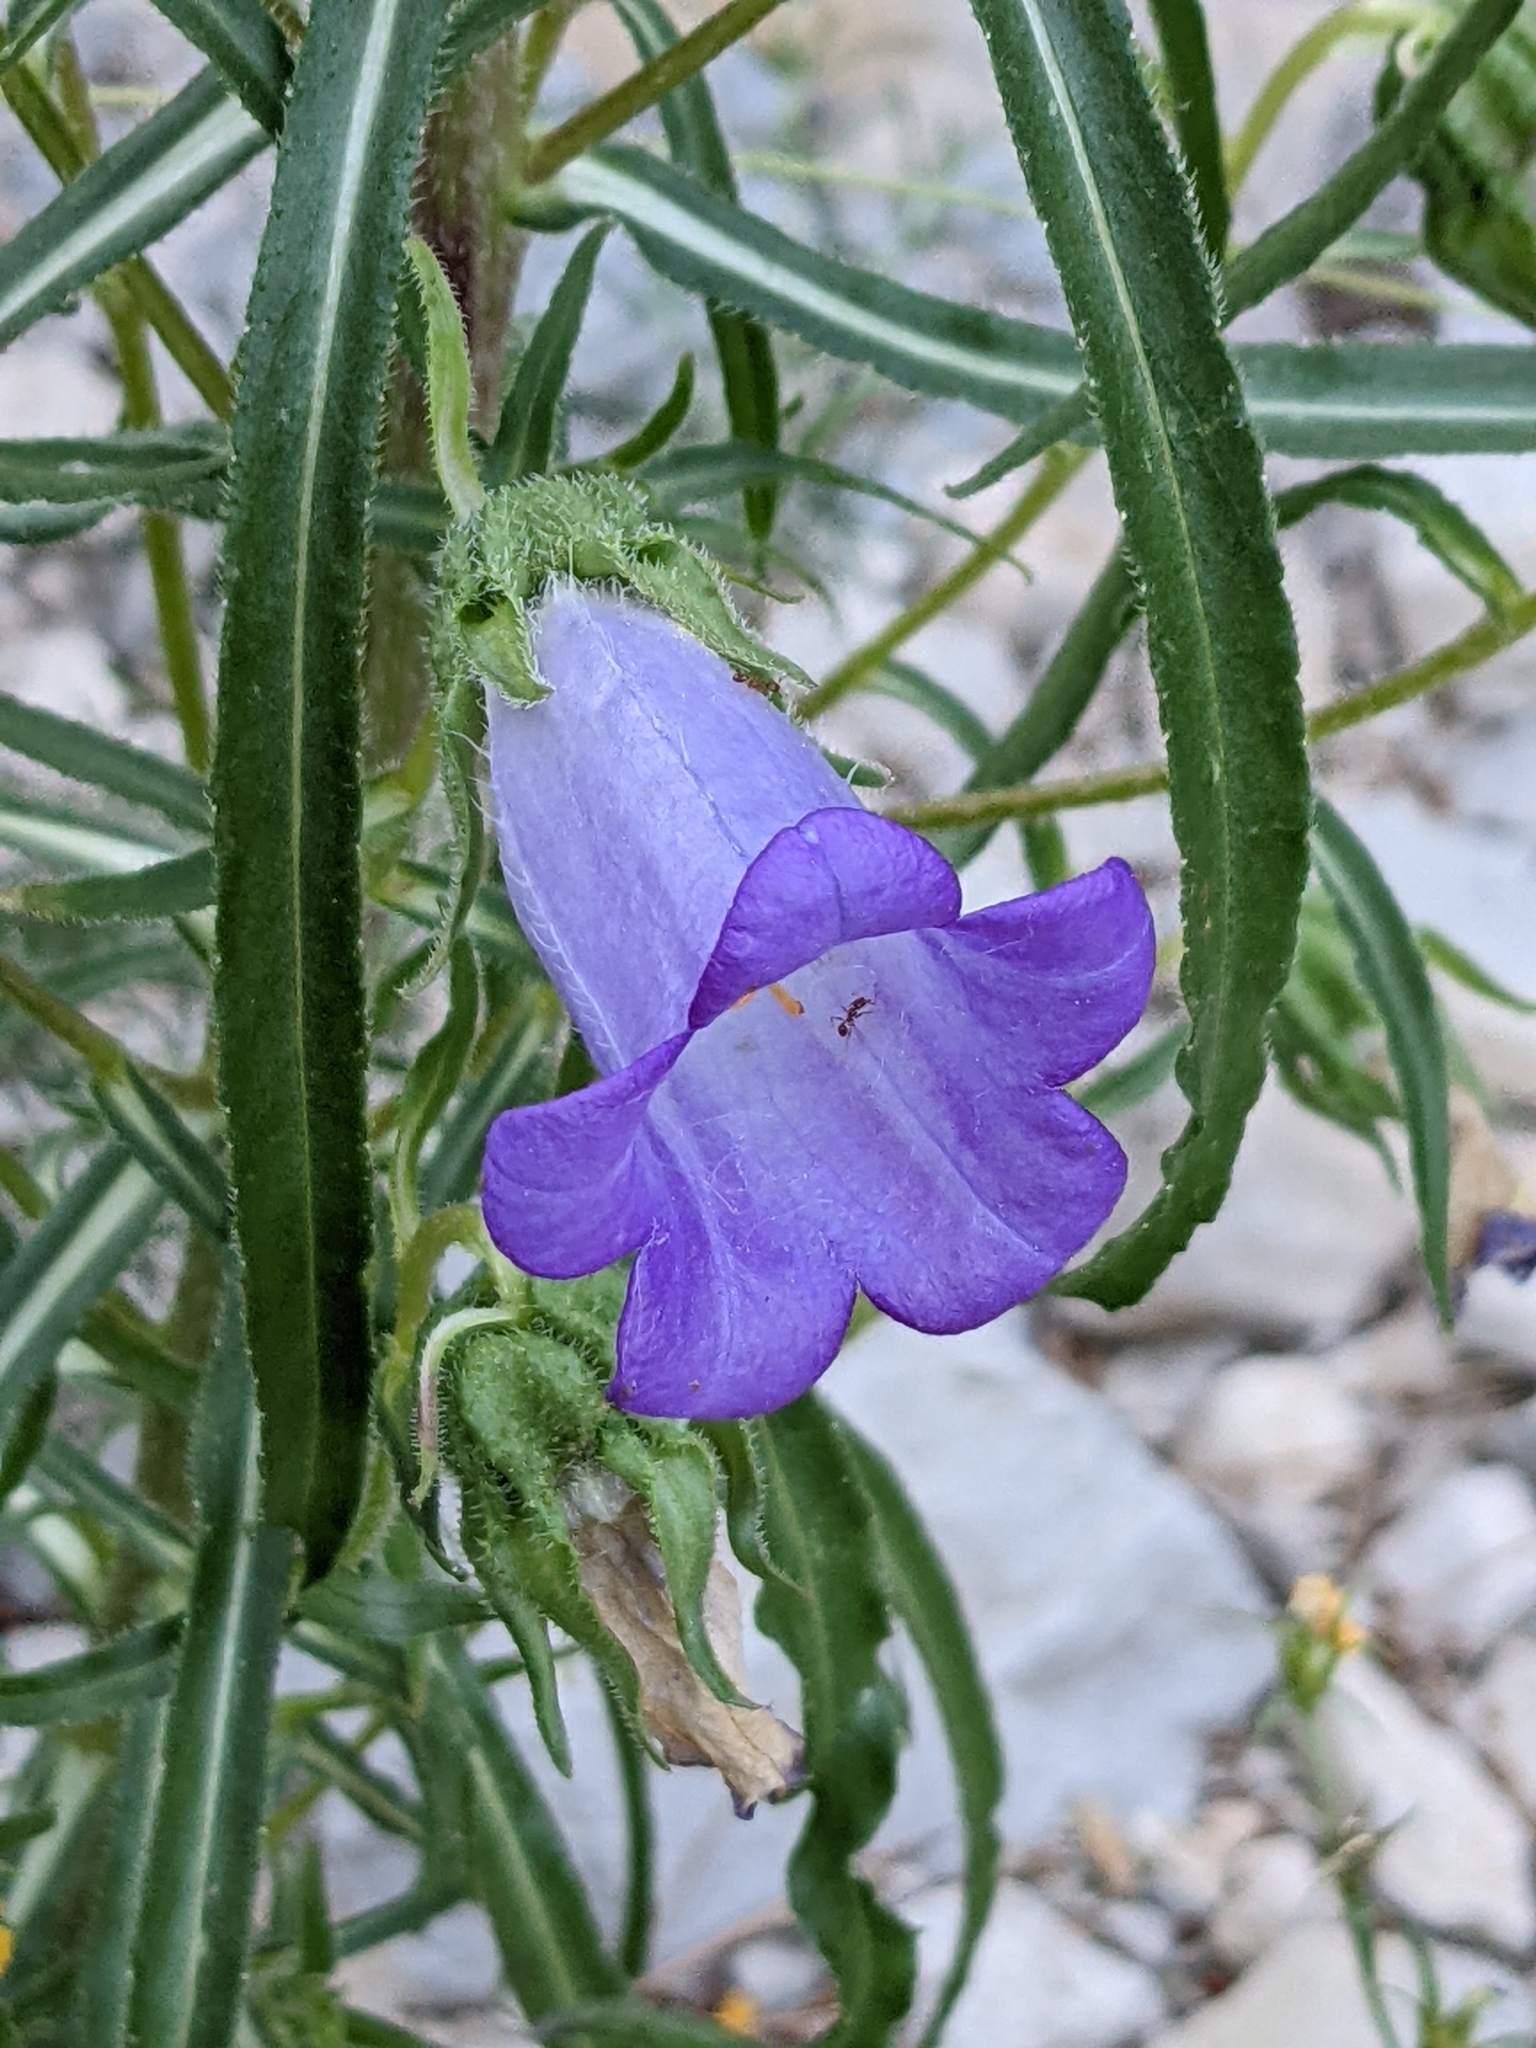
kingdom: Plantae
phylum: Tracheophyta
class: Magnoliopsida
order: Asterales
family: Campanulaceae
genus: Campanula
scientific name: Campanula speciosa
